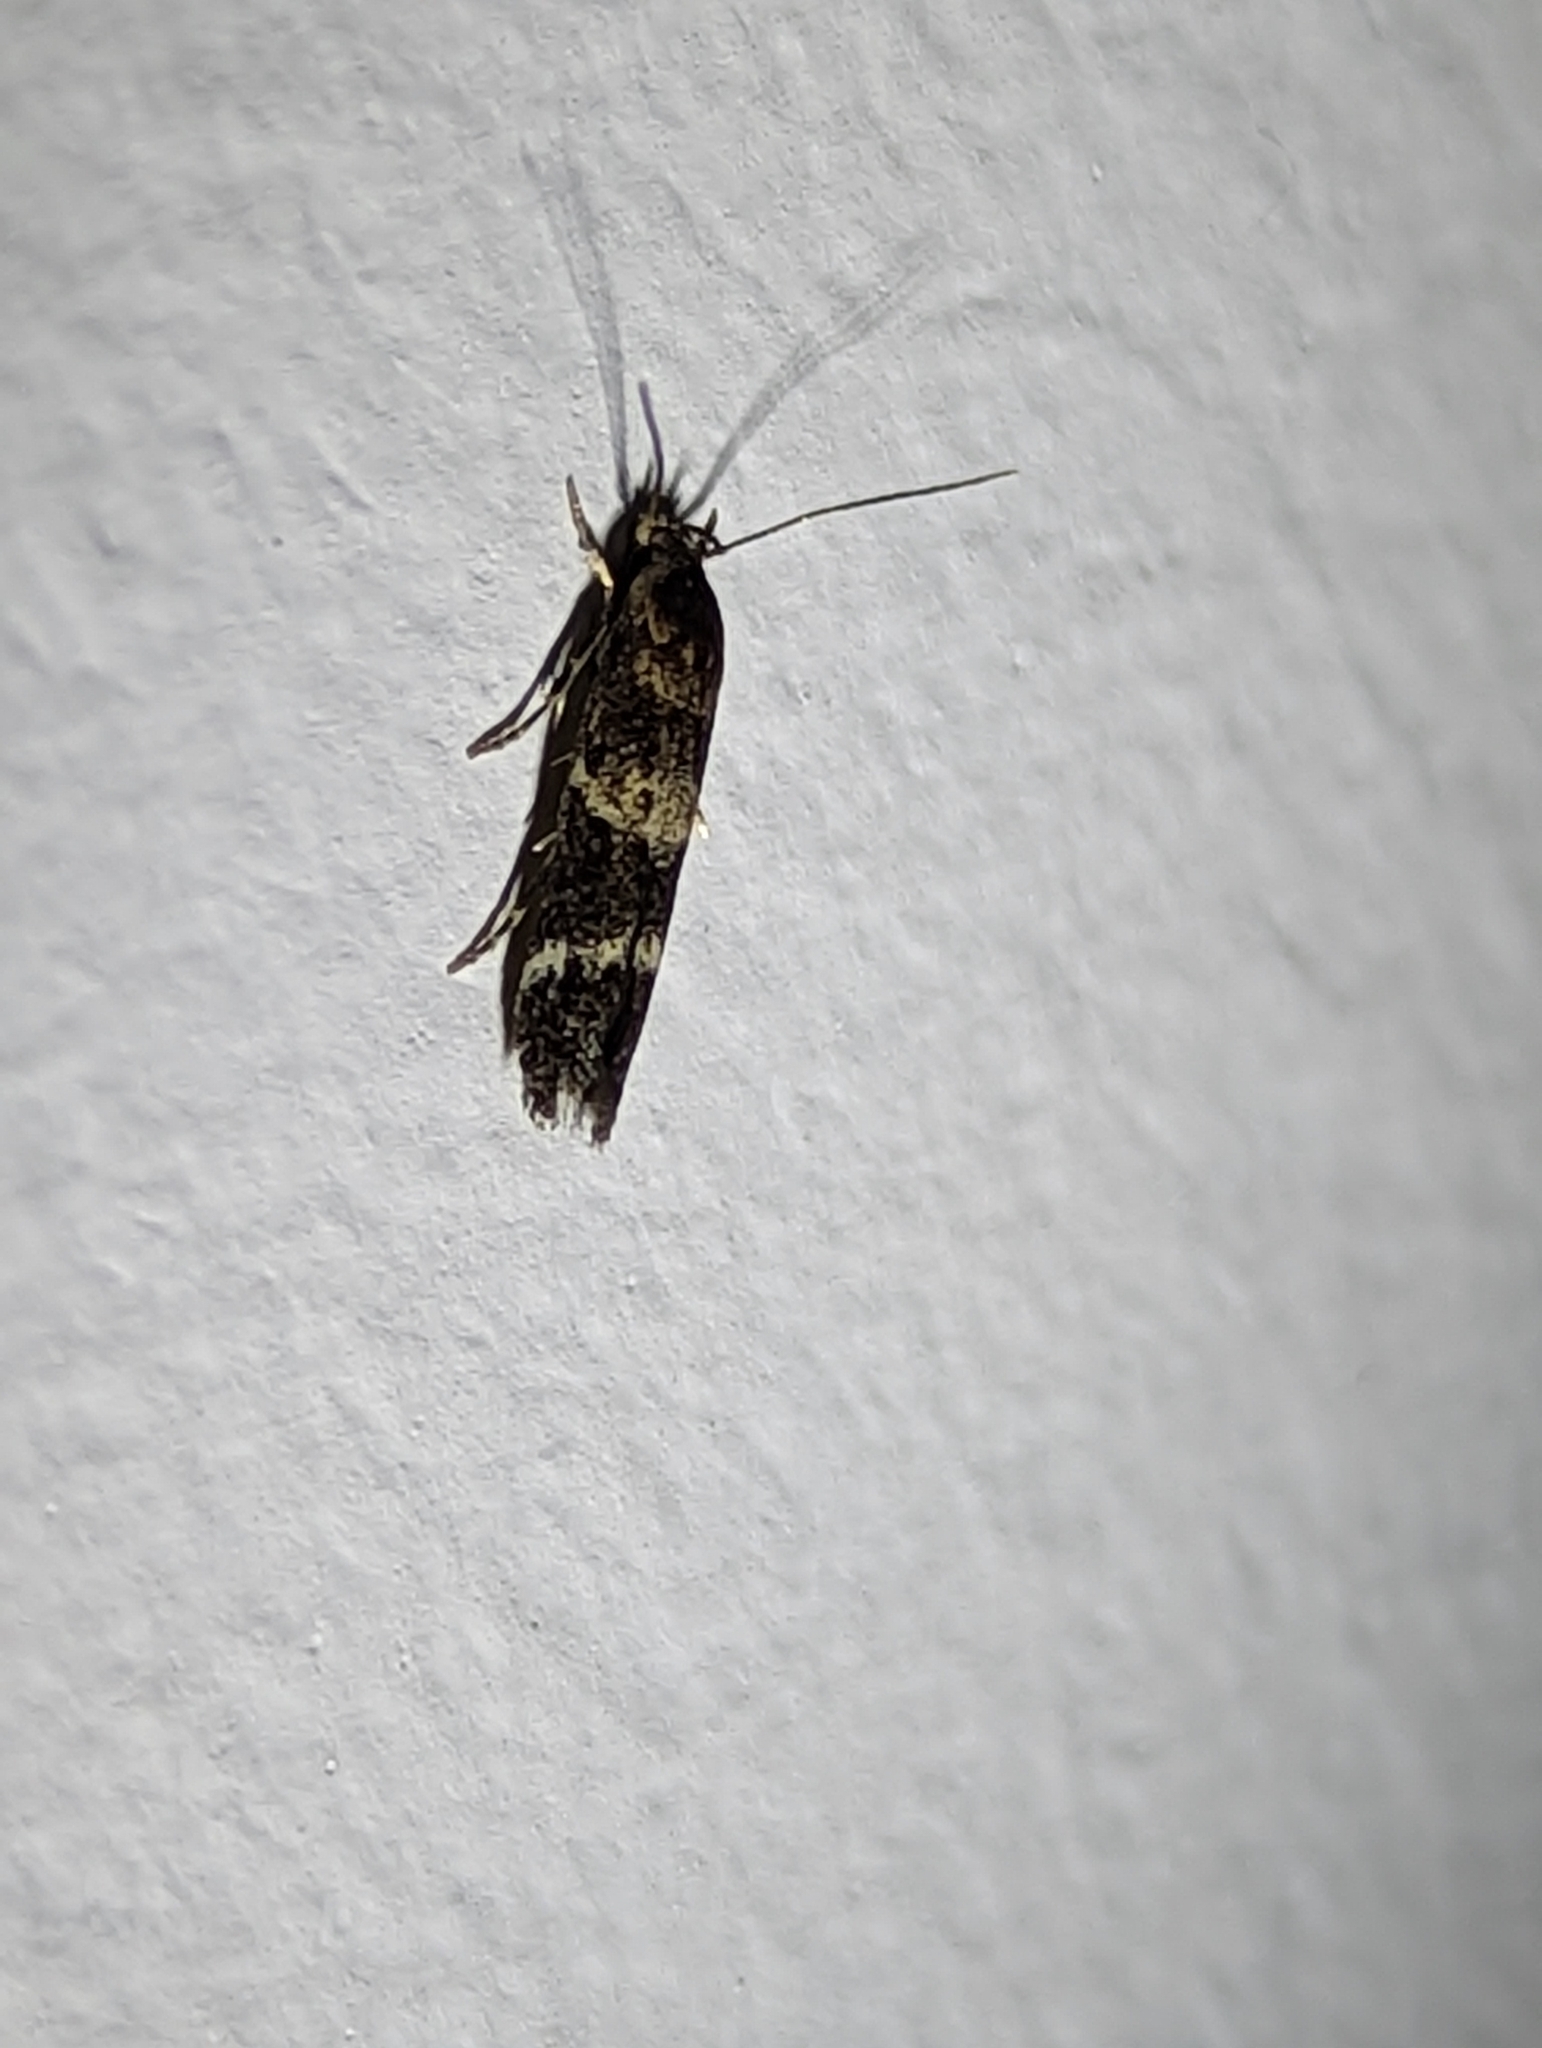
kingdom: Animalia
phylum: Arthropoda
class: Insecta
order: Lepidoptera
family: Momphidae
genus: Mompha
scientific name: Mompha subbistrigella
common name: Garden cosmet
